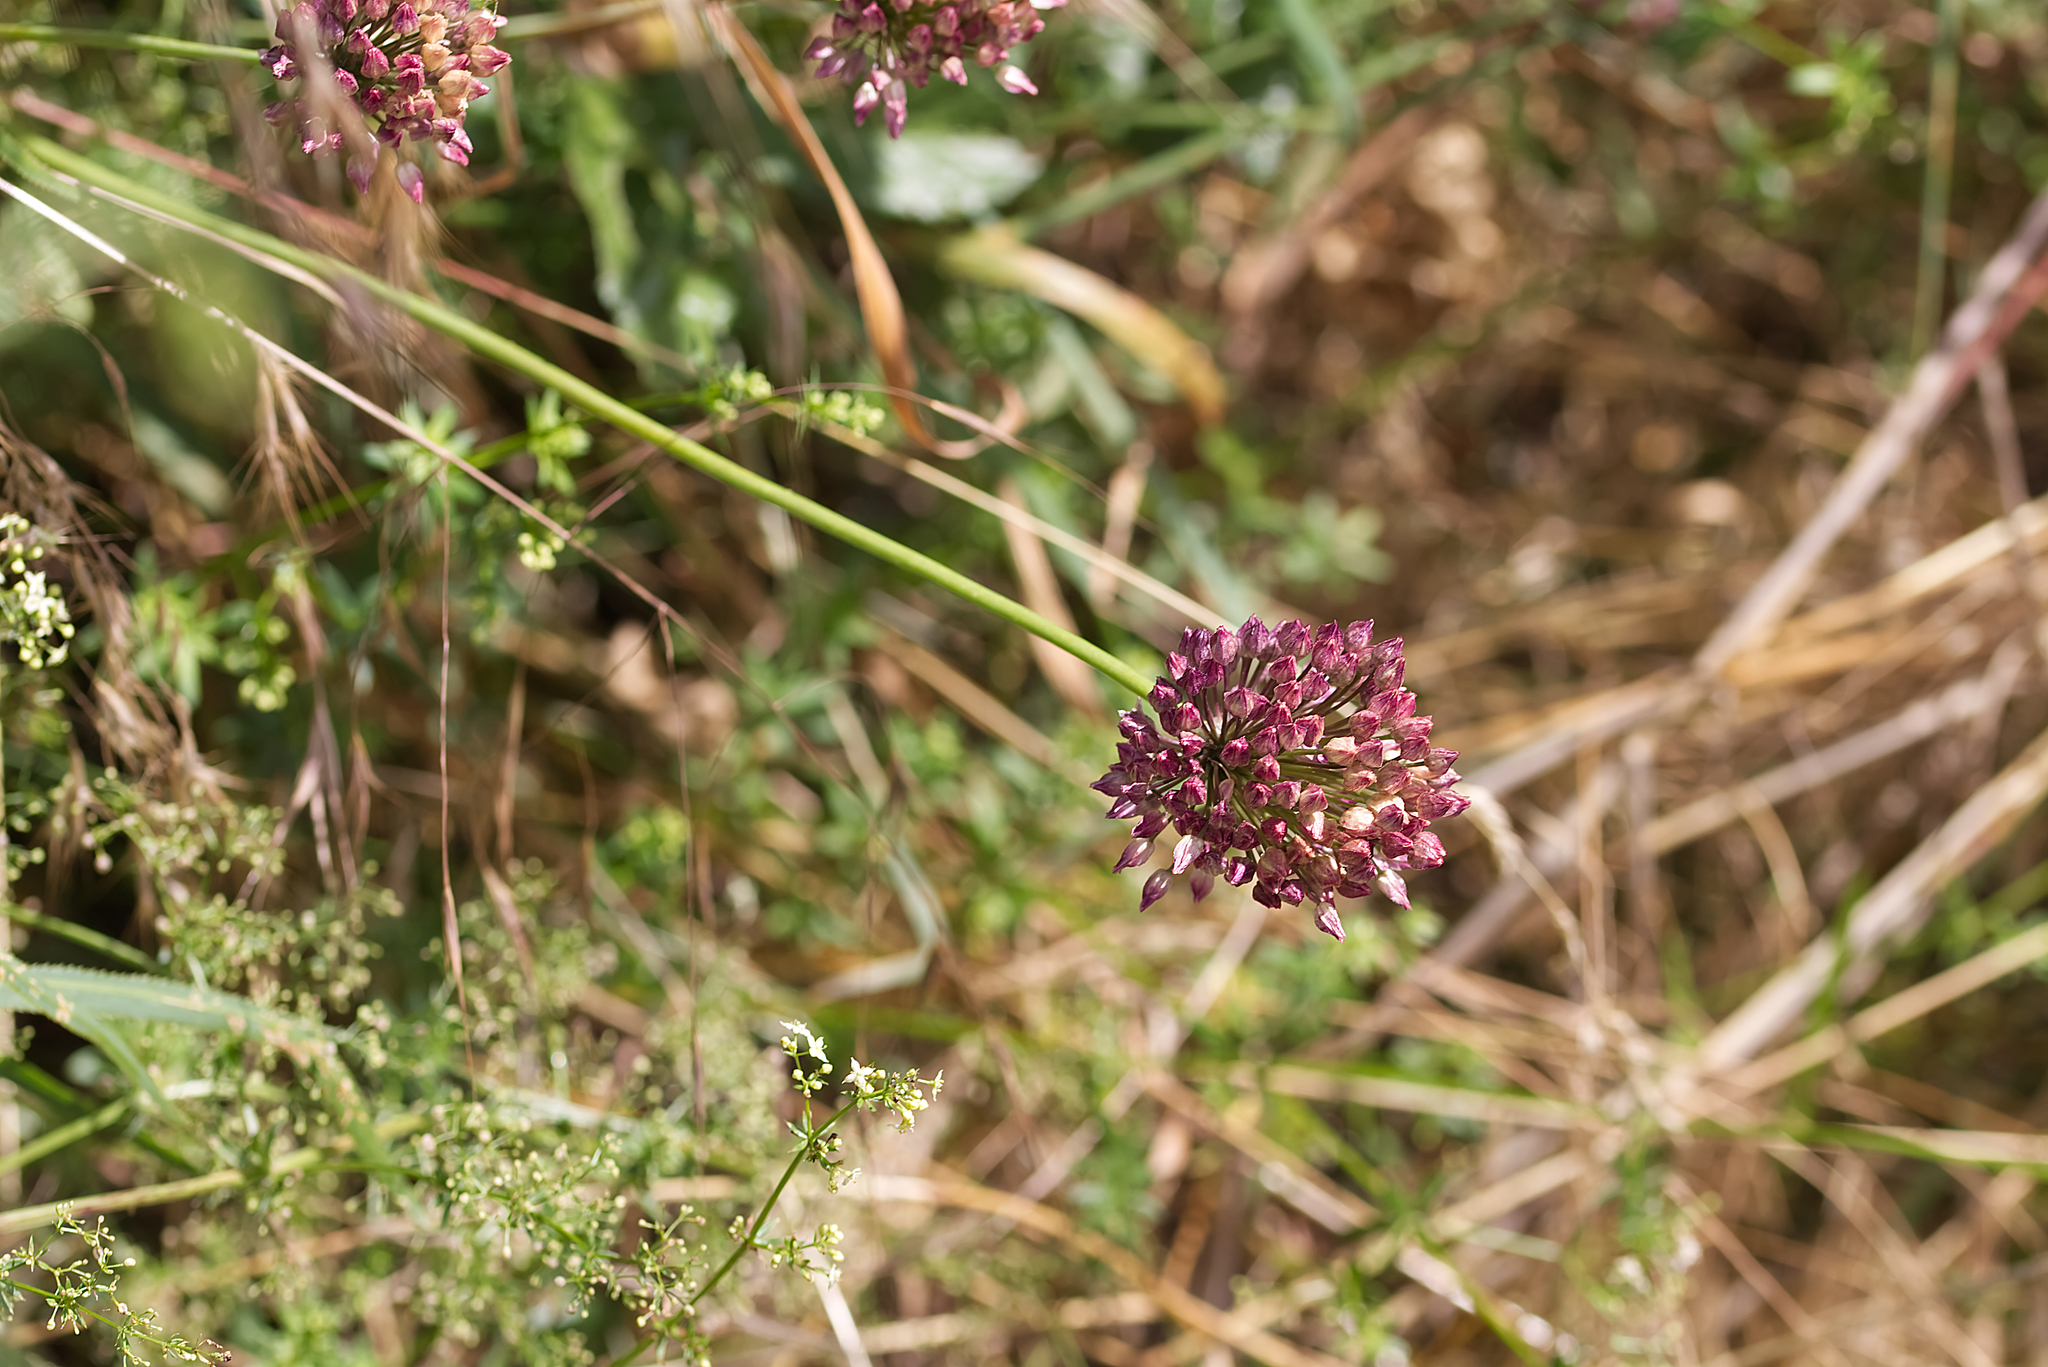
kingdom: Plantae
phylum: Tracheophyta
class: Liliopsida
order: Asparagales
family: Amaryllidaceae
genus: Allium
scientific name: Allium rotundum
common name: Sand leek
